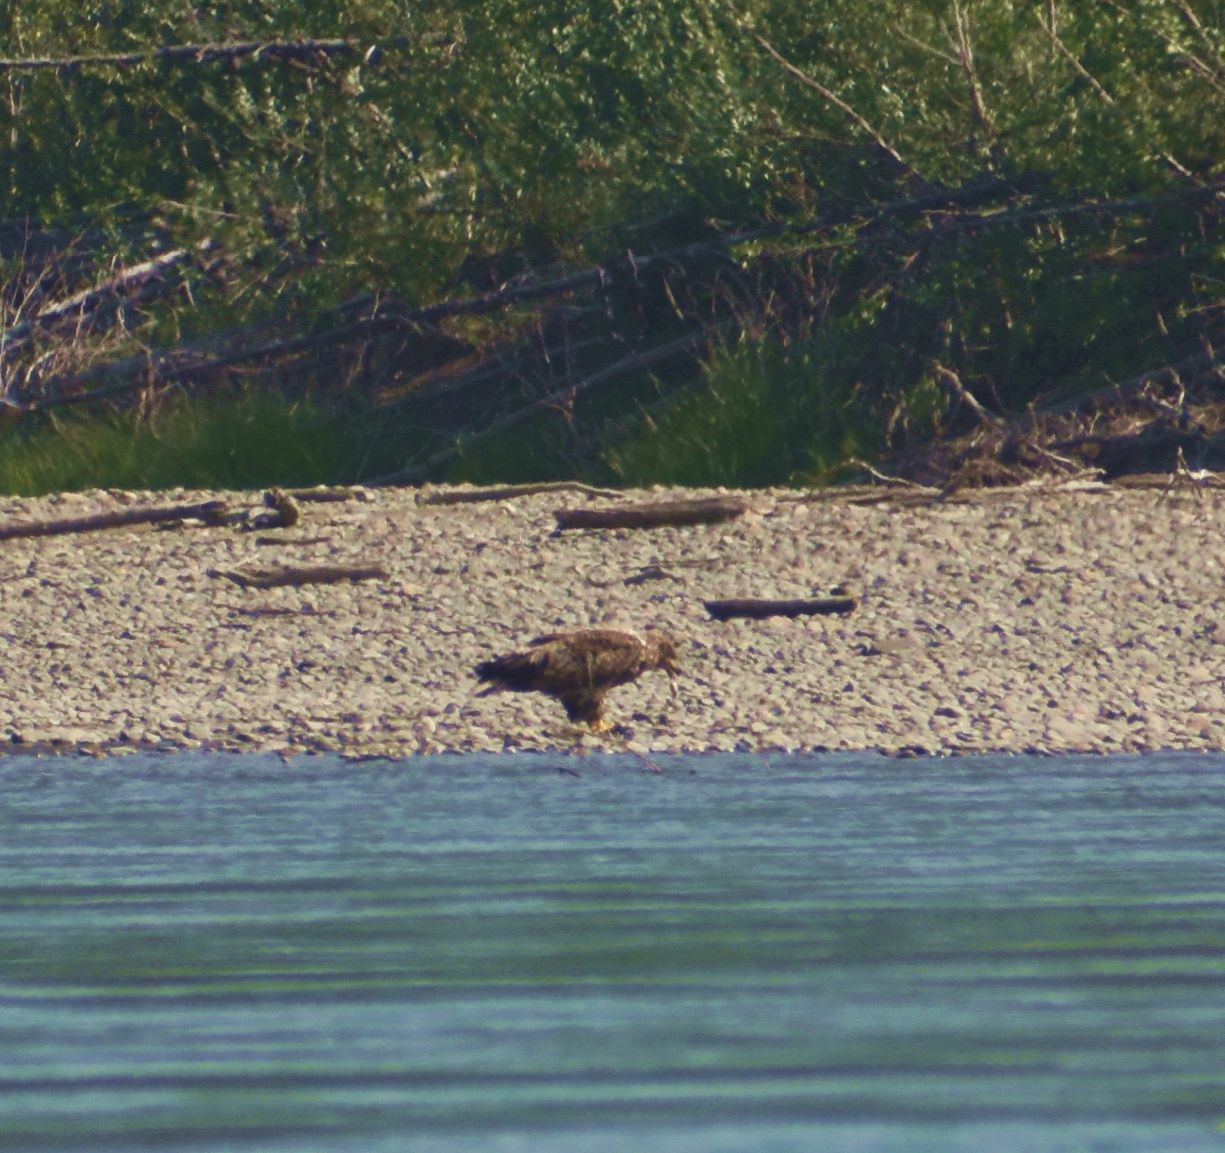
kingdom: Animalia
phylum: Chordata
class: Aves
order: Accipitriformes
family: Accipitridae
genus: Haliaeetus
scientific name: Haliaeetus leucocephalus
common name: Bald eagle
